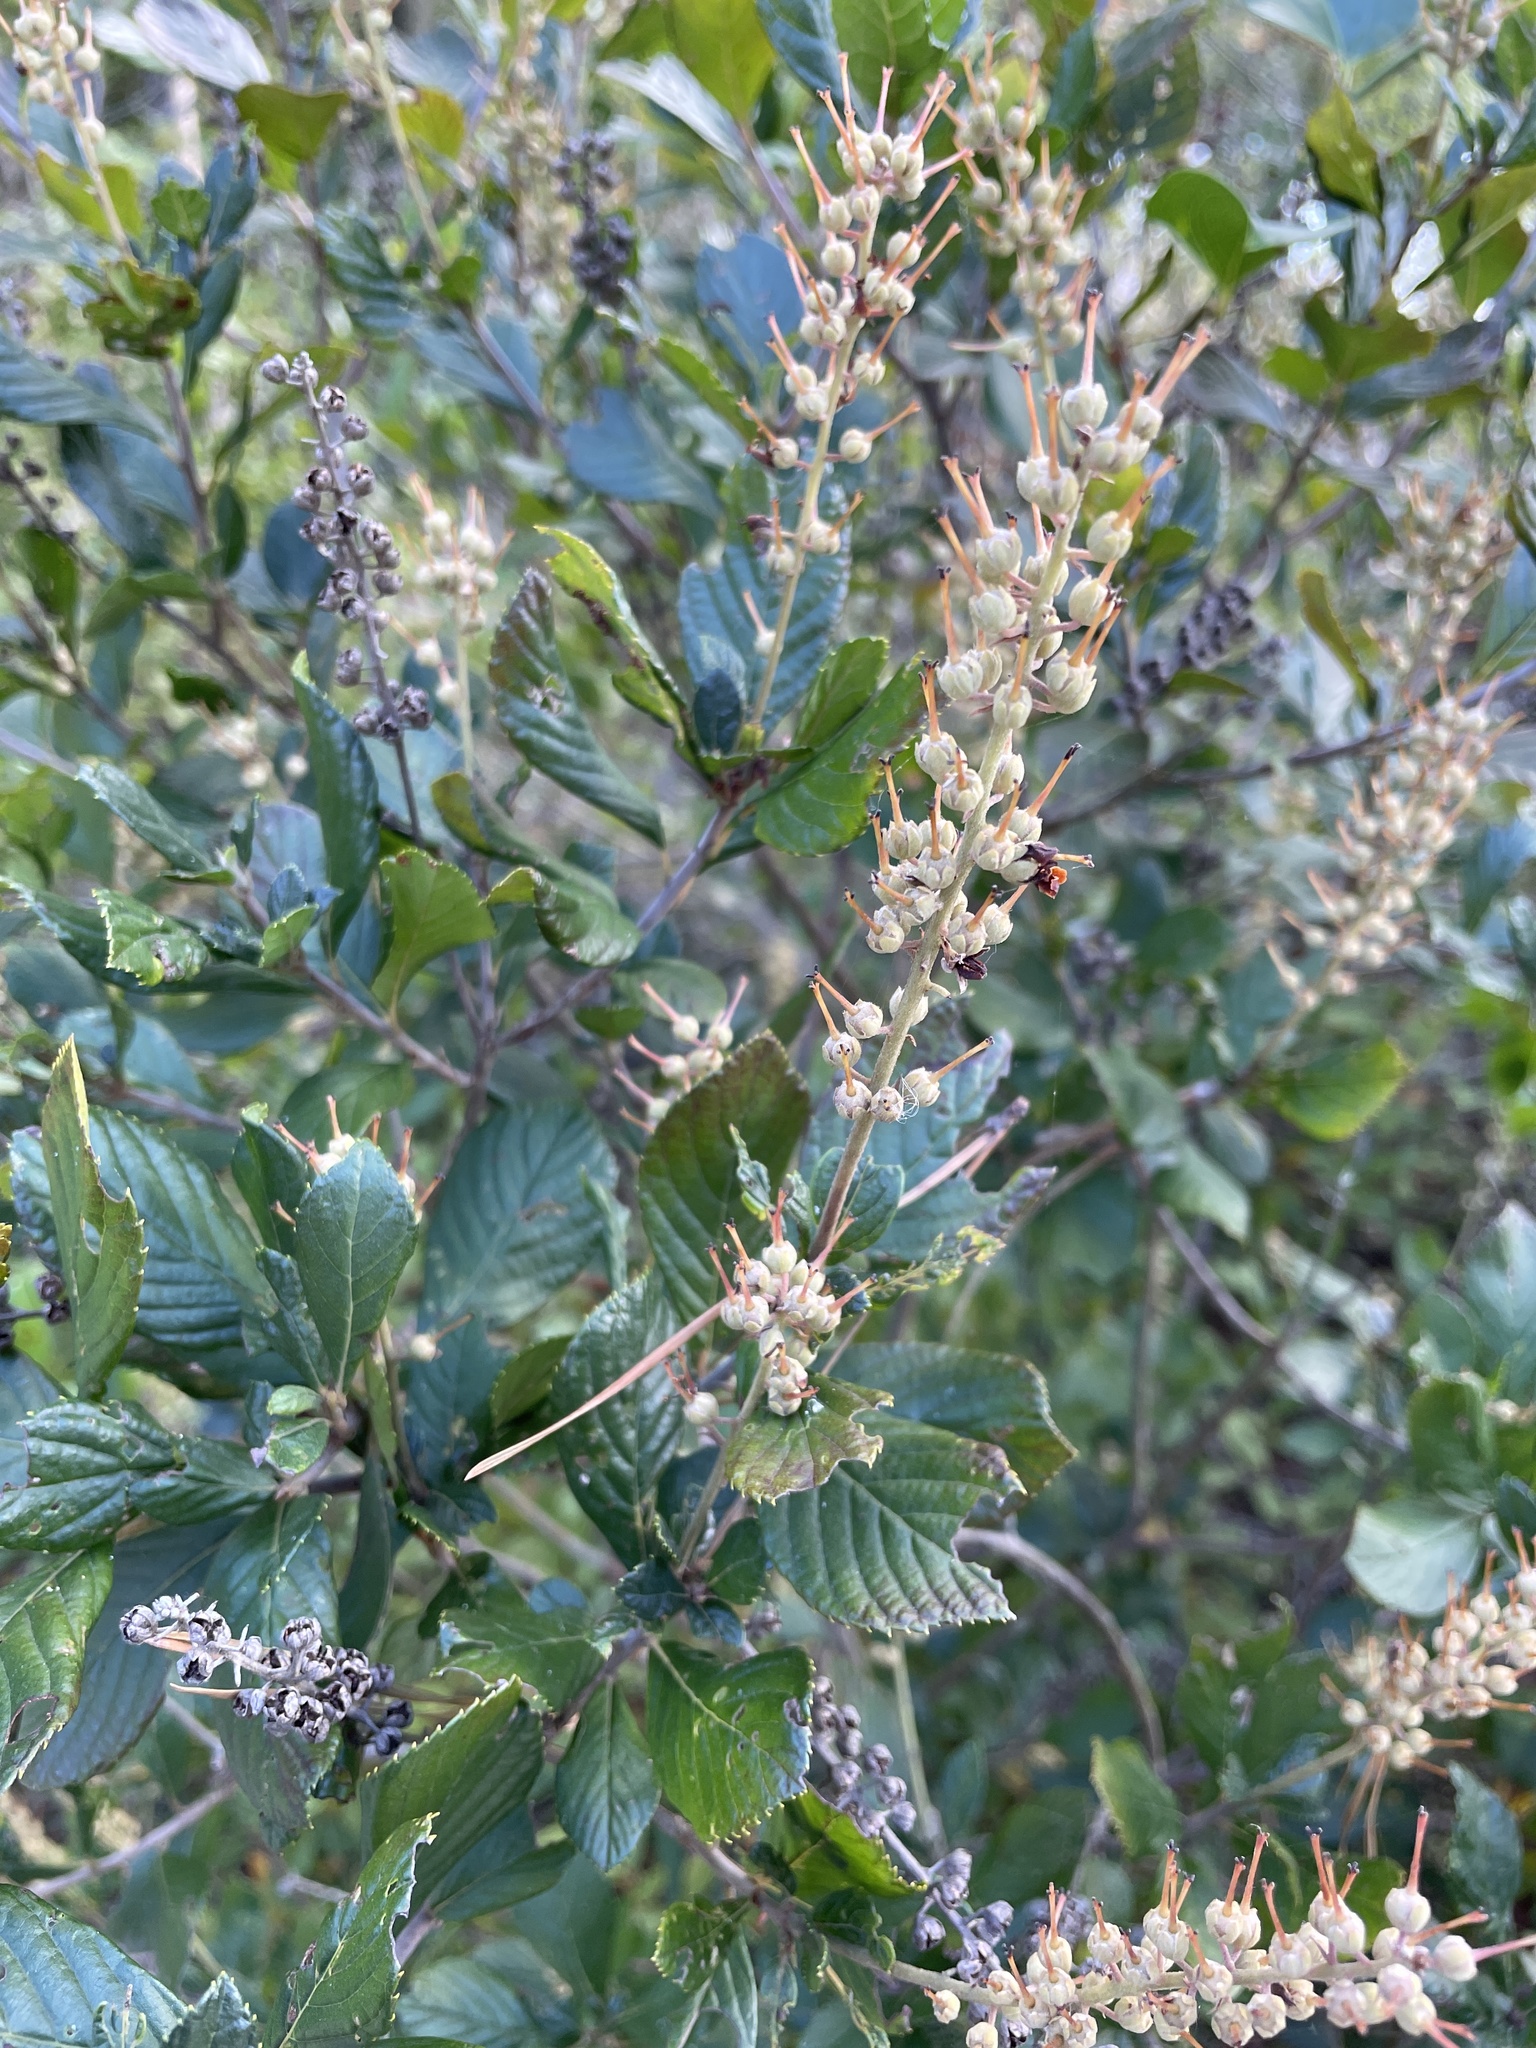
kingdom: Plantae
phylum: Tracheophyta
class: Magnoliopsida
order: Ericales
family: Clethraceae
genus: Clethra
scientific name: Clethra alnifolia
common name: Sweet pepperbush
